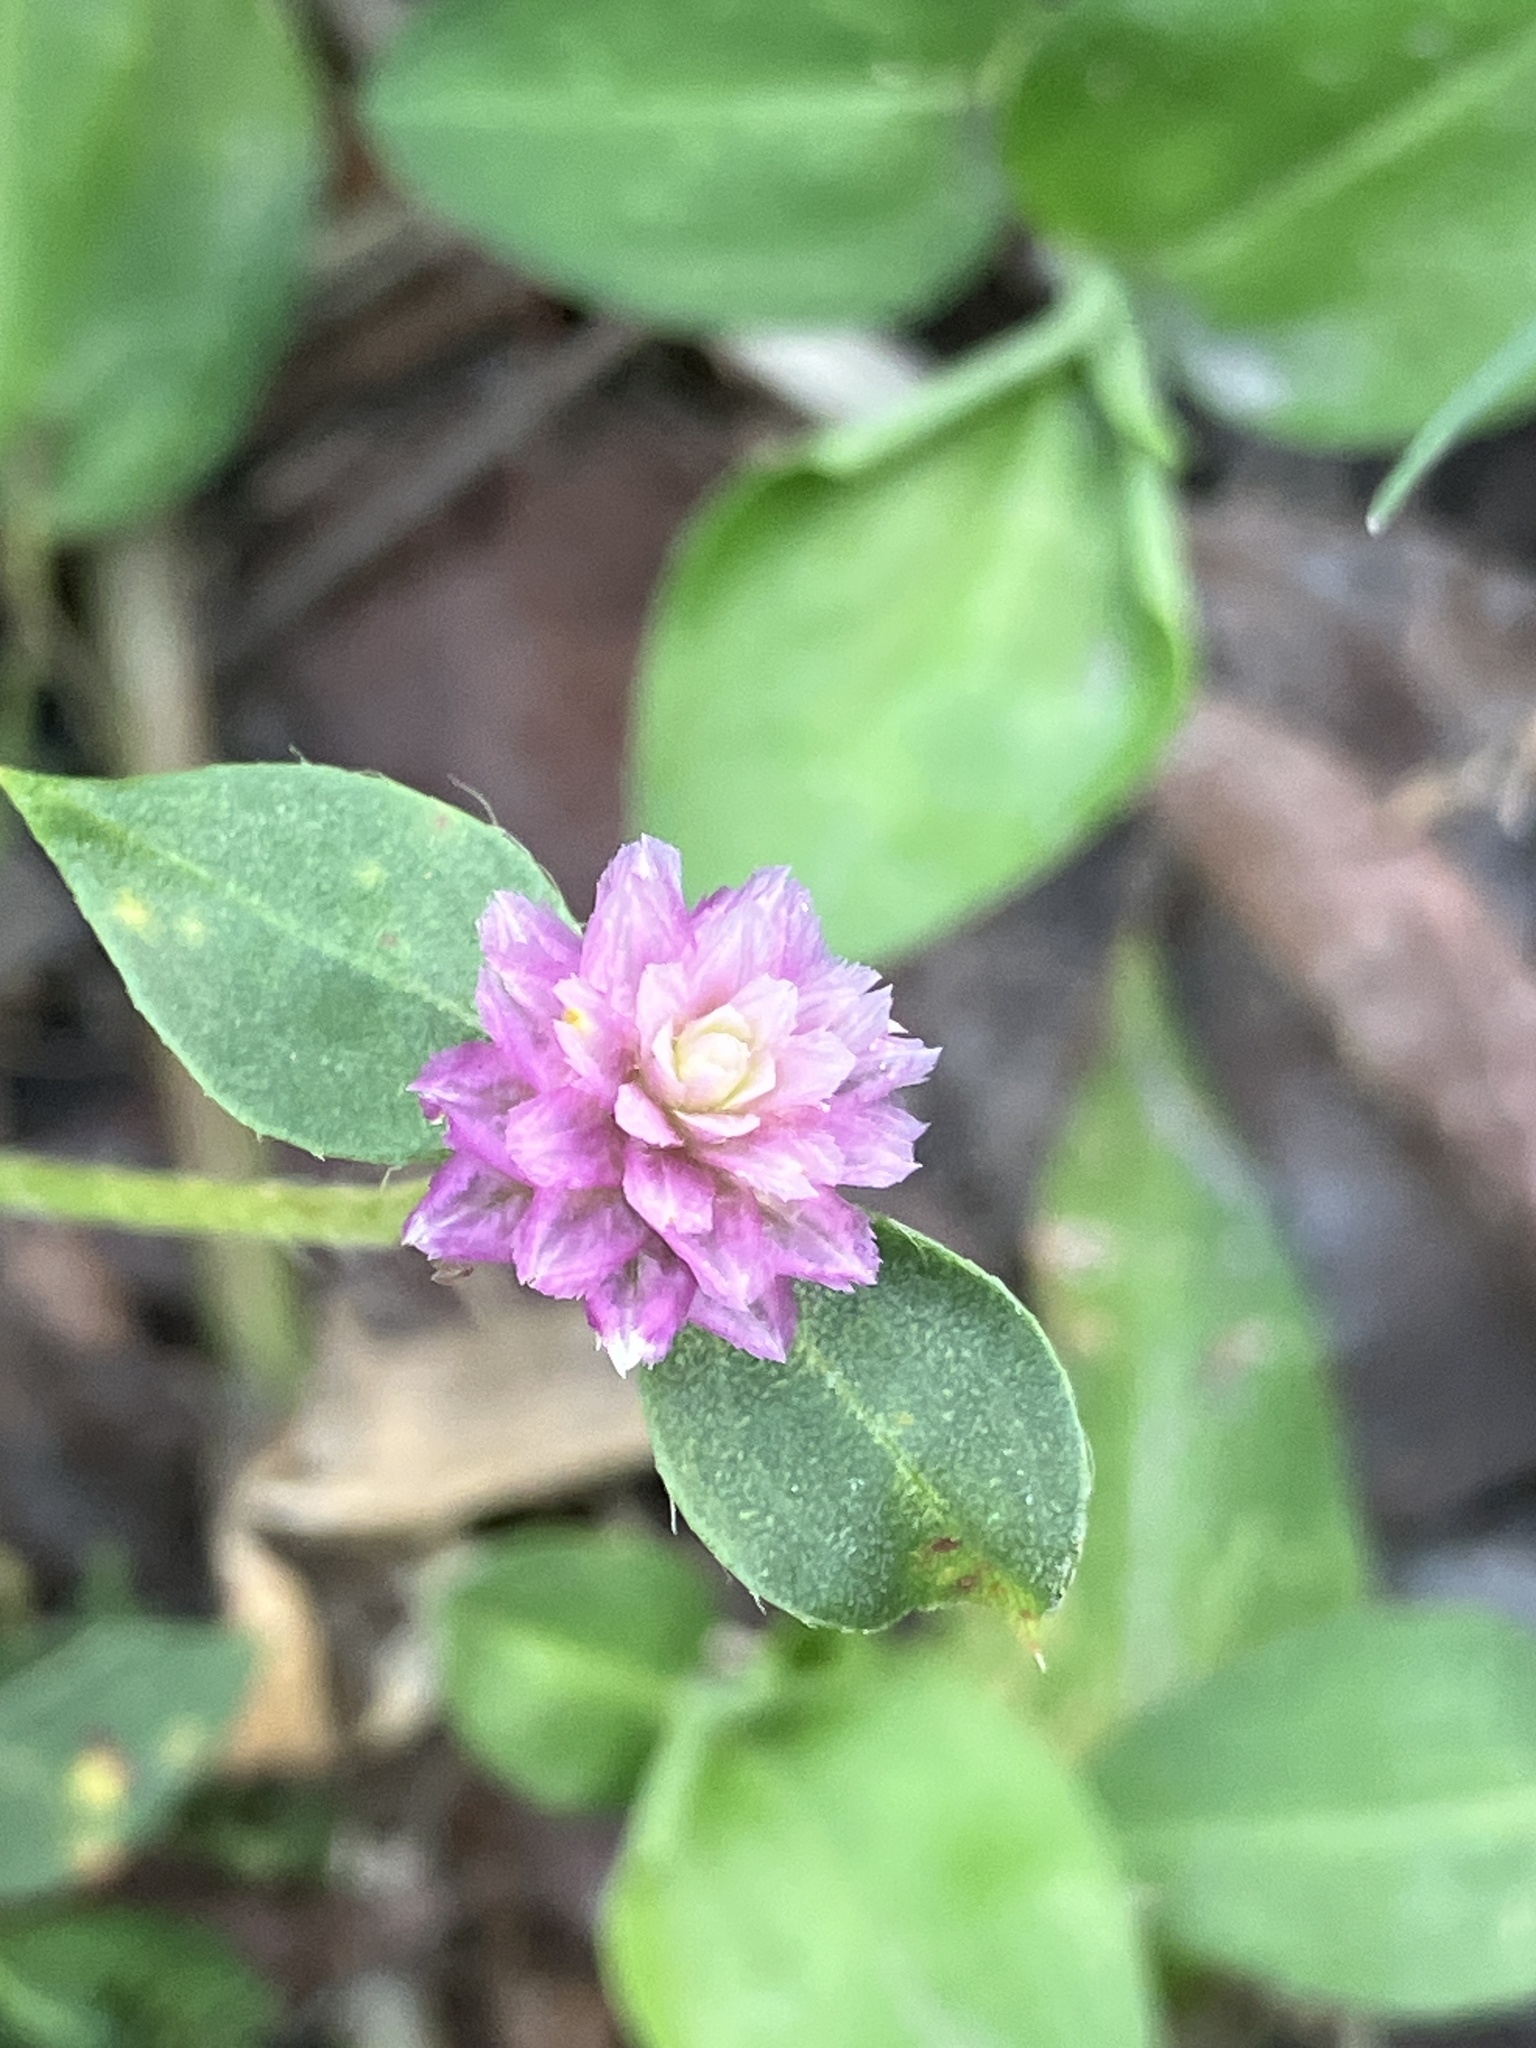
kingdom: Plantae
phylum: Tracheophyta
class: Magnoliopsida
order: Caryophyllales
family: Amaranthaceae
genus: Gomphrena
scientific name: Gomphrena serrata
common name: Arrasa con todo
